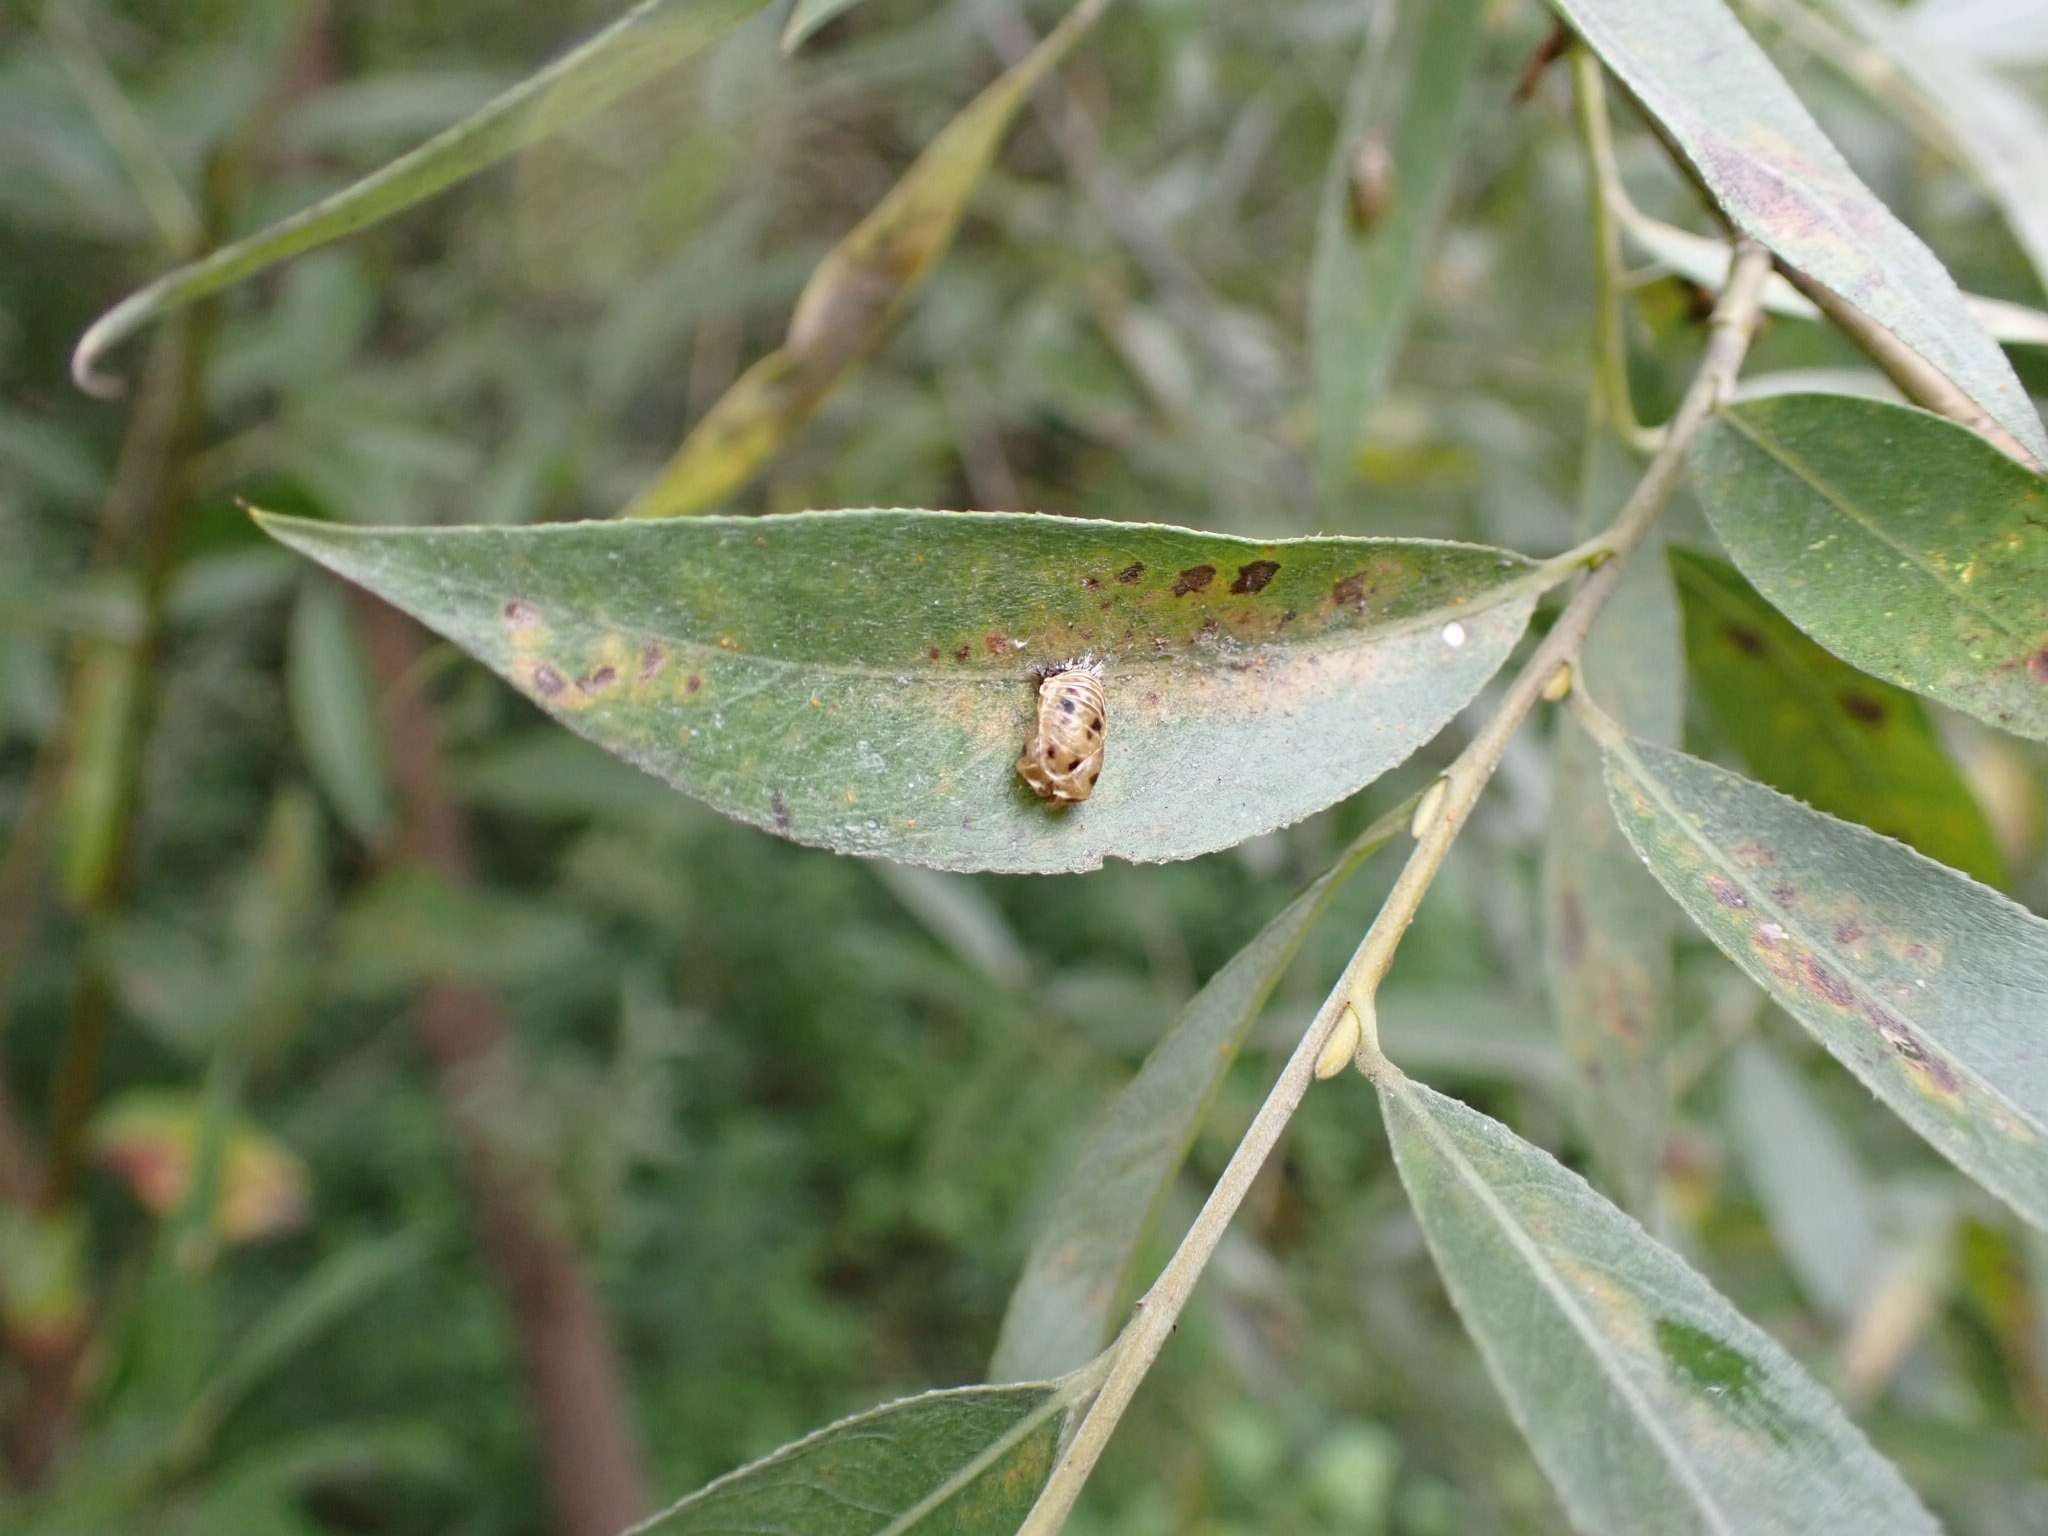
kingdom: Animalia
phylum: Arthropoda
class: Insecta
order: Coleoptera
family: Coccinellidae
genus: Harmonia
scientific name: Harmonia axyridis
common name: Harlequin ladybird
